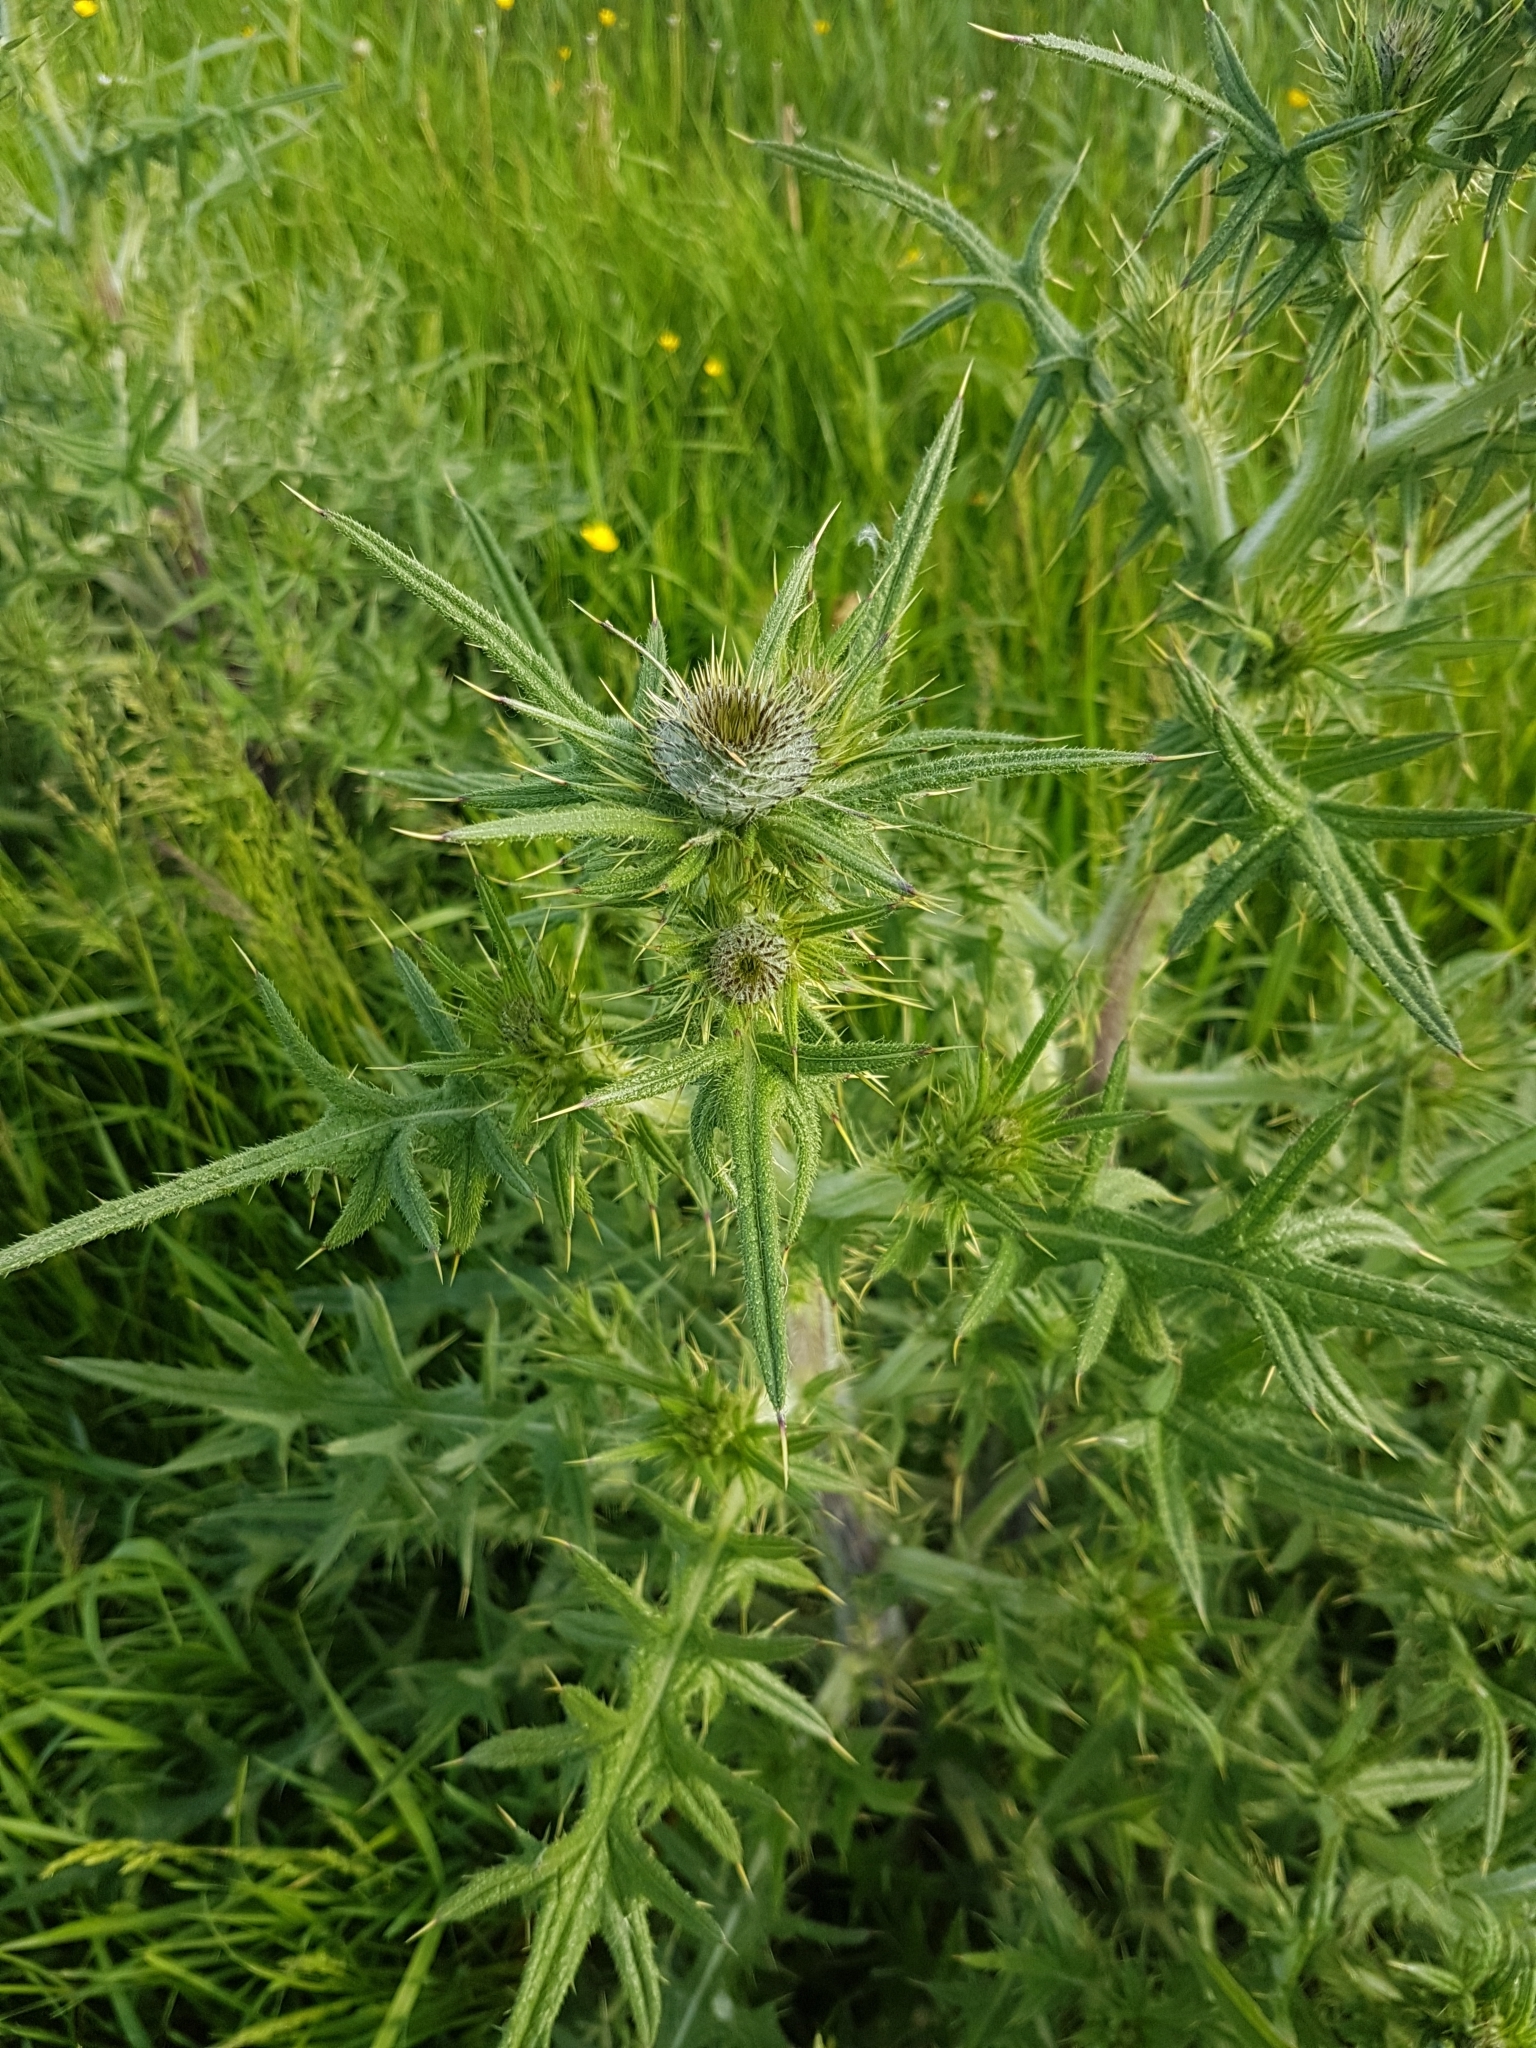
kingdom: Plantae
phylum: Tracheophyta
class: Magnoliopsida
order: Asterales
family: Asteraceae
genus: Cirsium
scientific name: Cirsium vulgare
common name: Bull thistle
